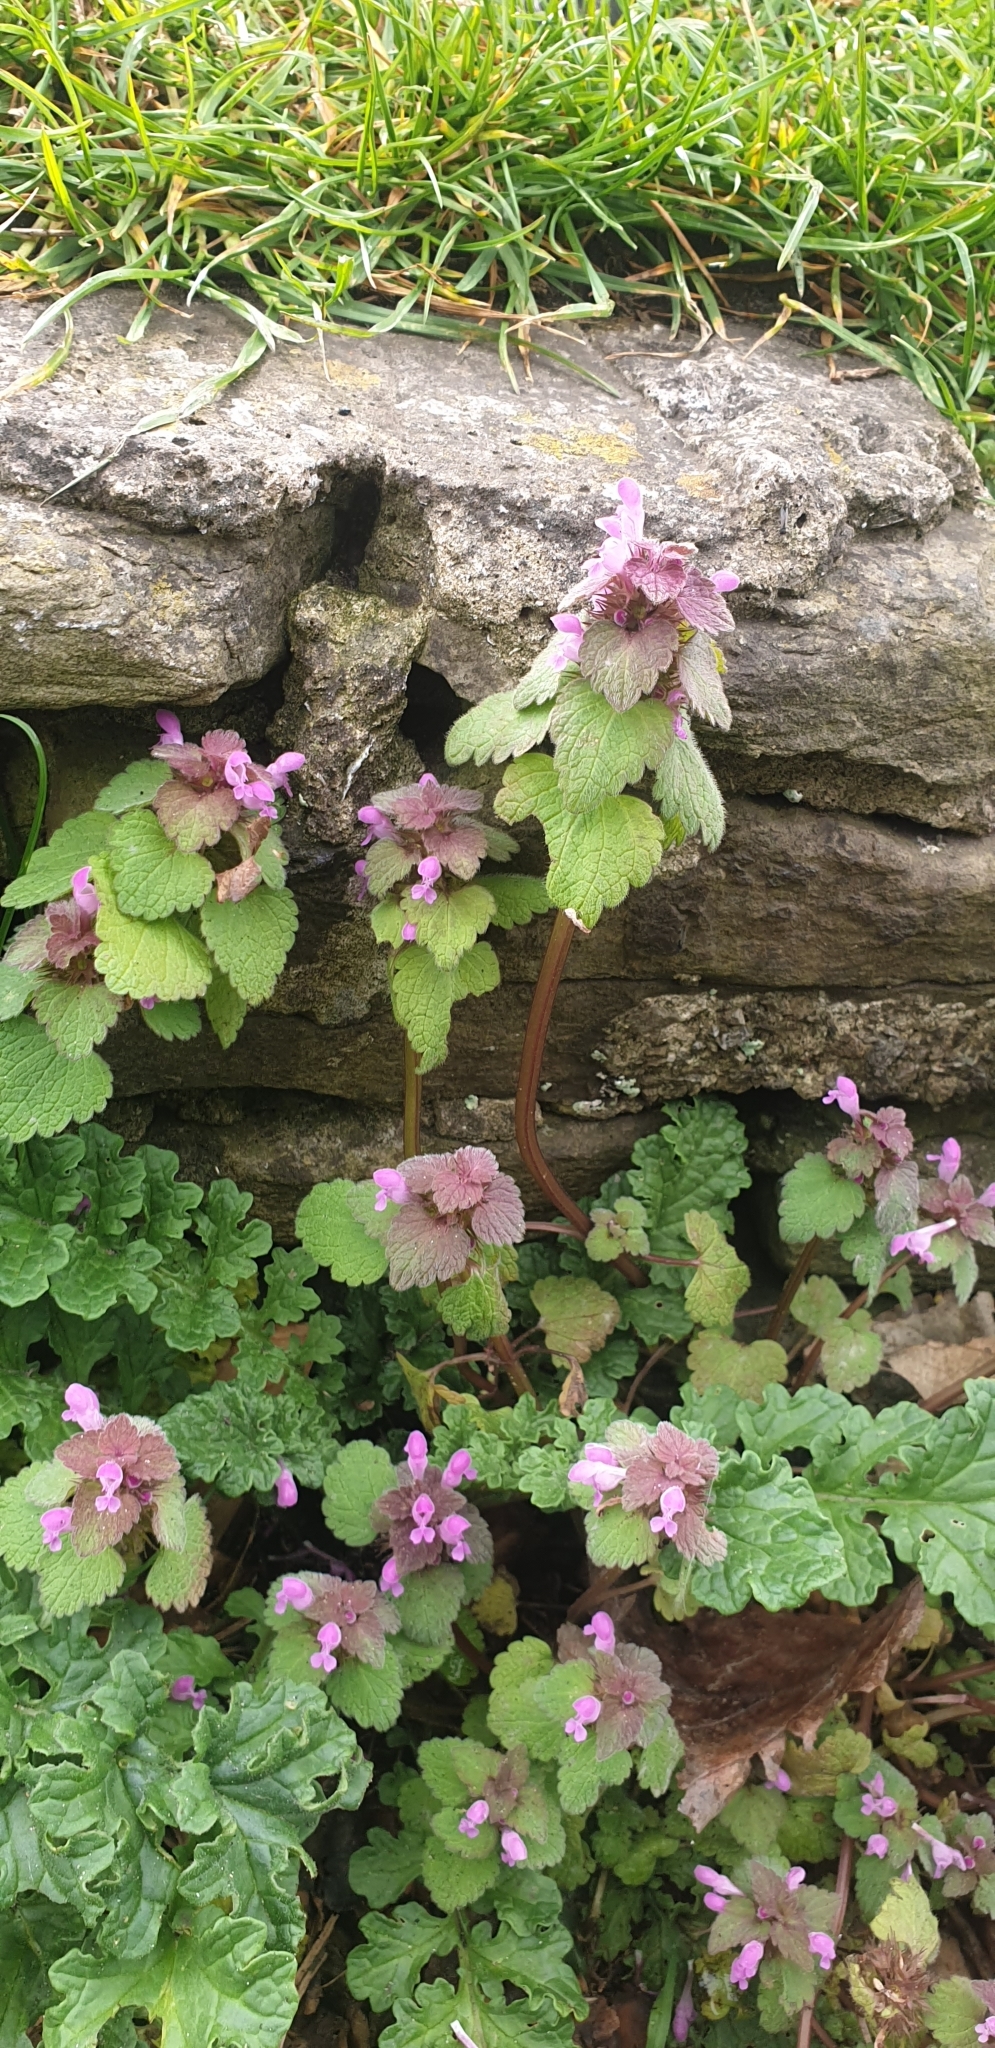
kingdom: Plantae
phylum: Tracheophyta
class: Magnoliopsida
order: Lamiales
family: Lamiaceae
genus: Lamium
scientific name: Lamium purpureum
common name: Red dead-nettle
